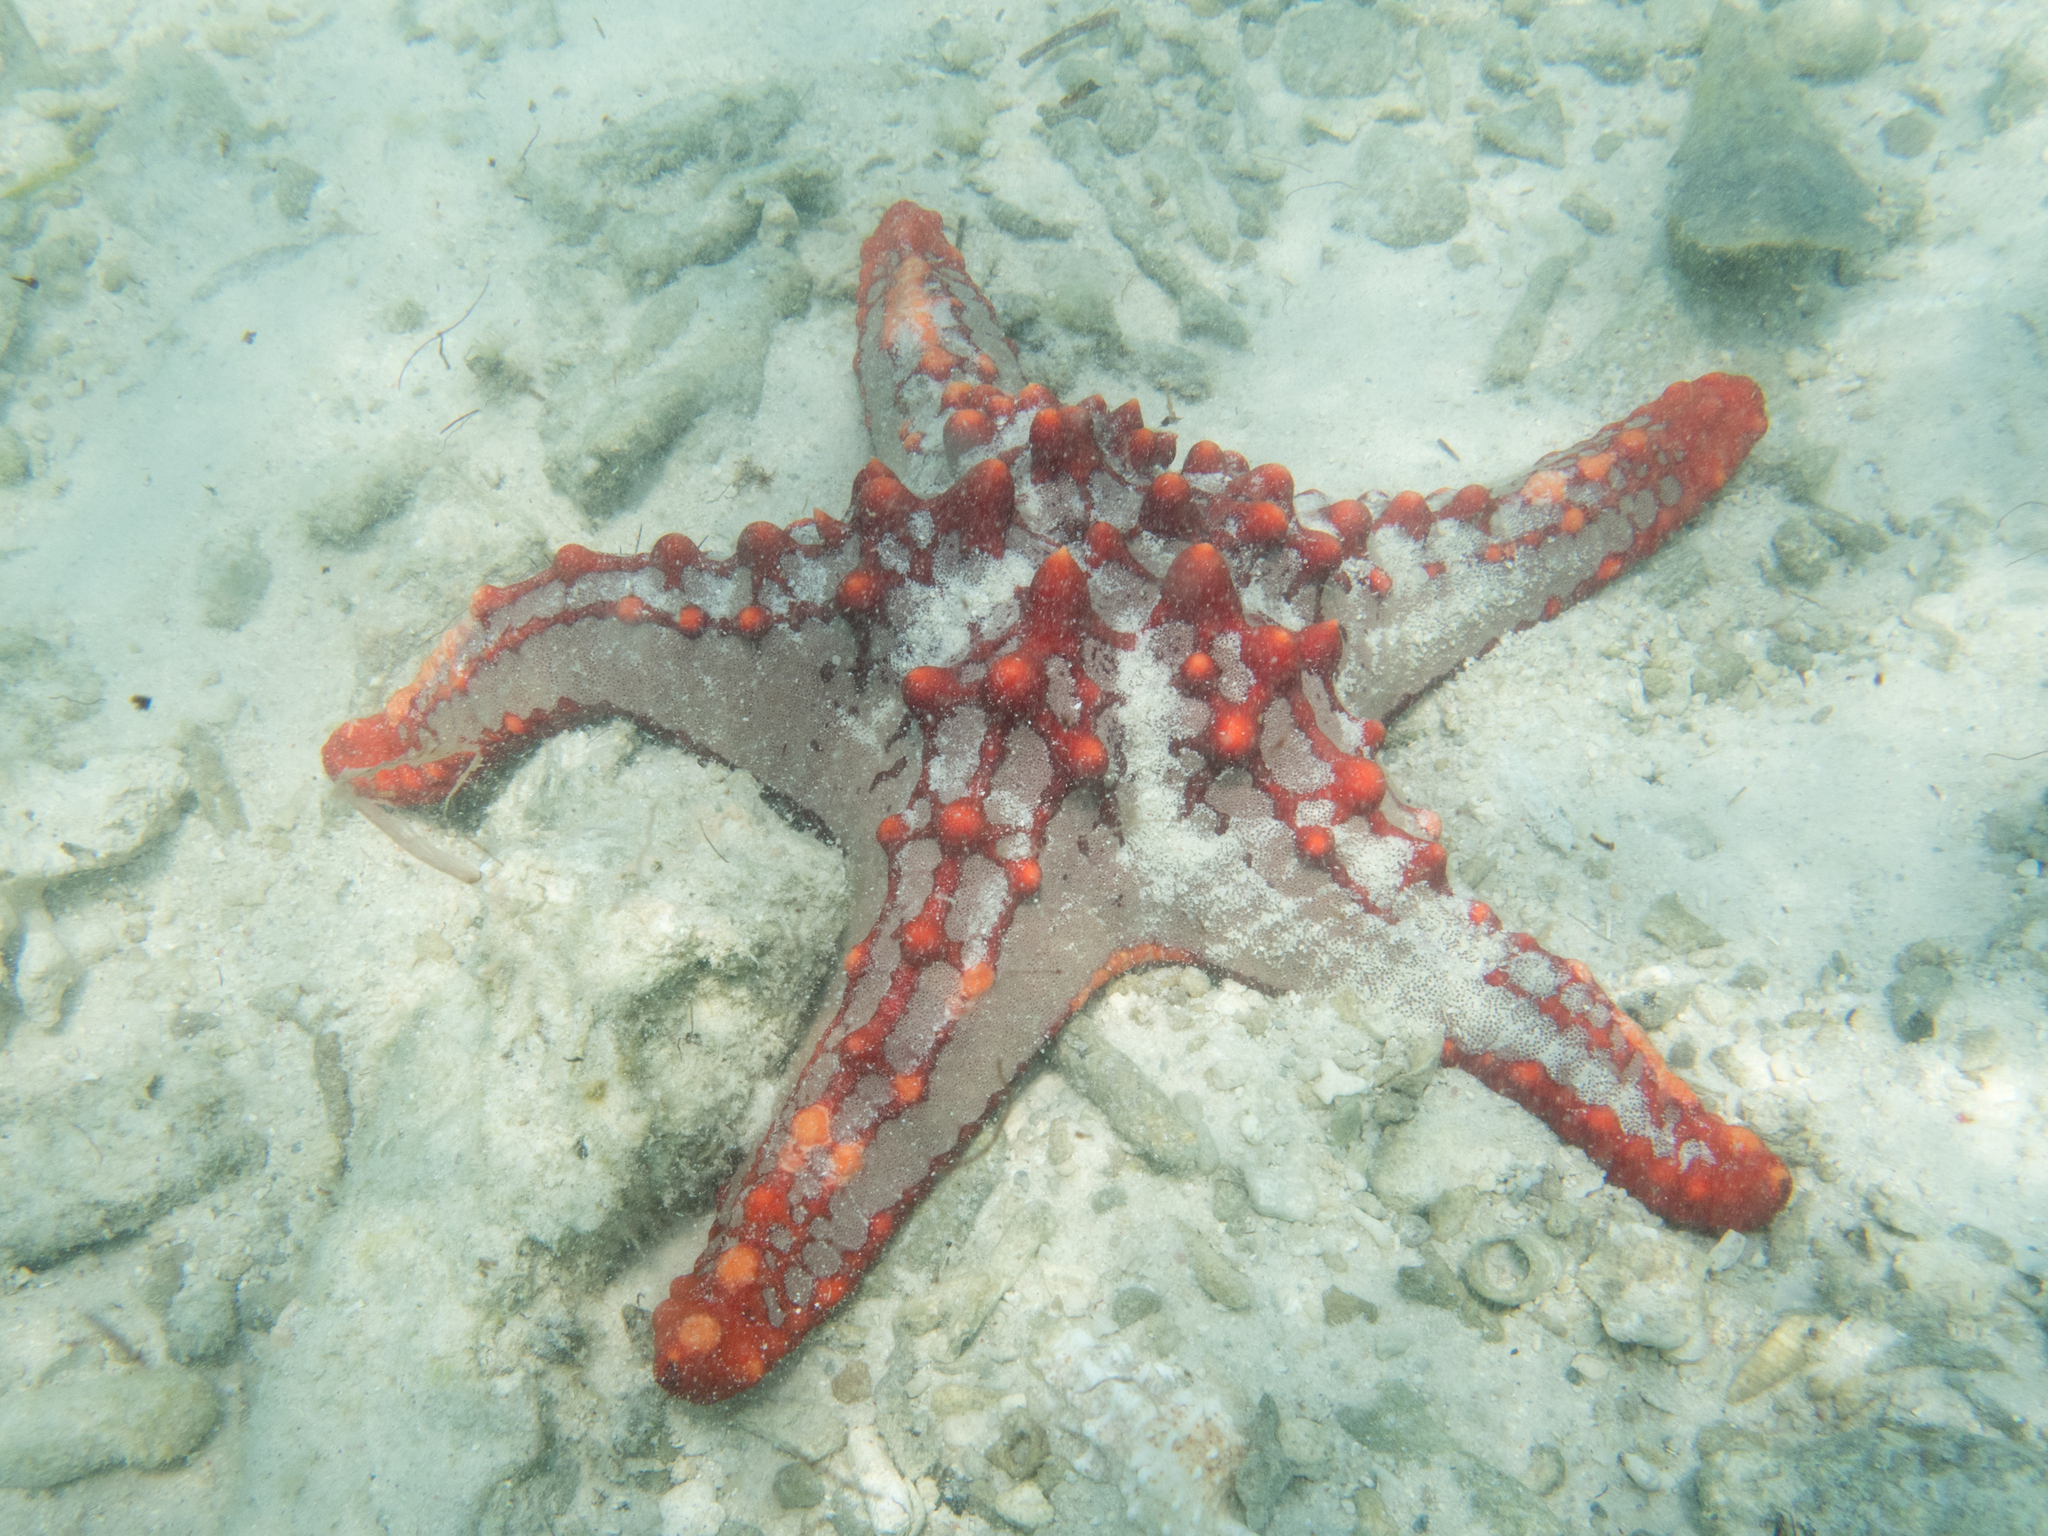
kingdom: Animalia
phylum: Echinodermata
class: Asteroidea
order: Valvatida
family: Oreasteridae
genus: Protoreaster
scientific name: Protoreaster lincki
